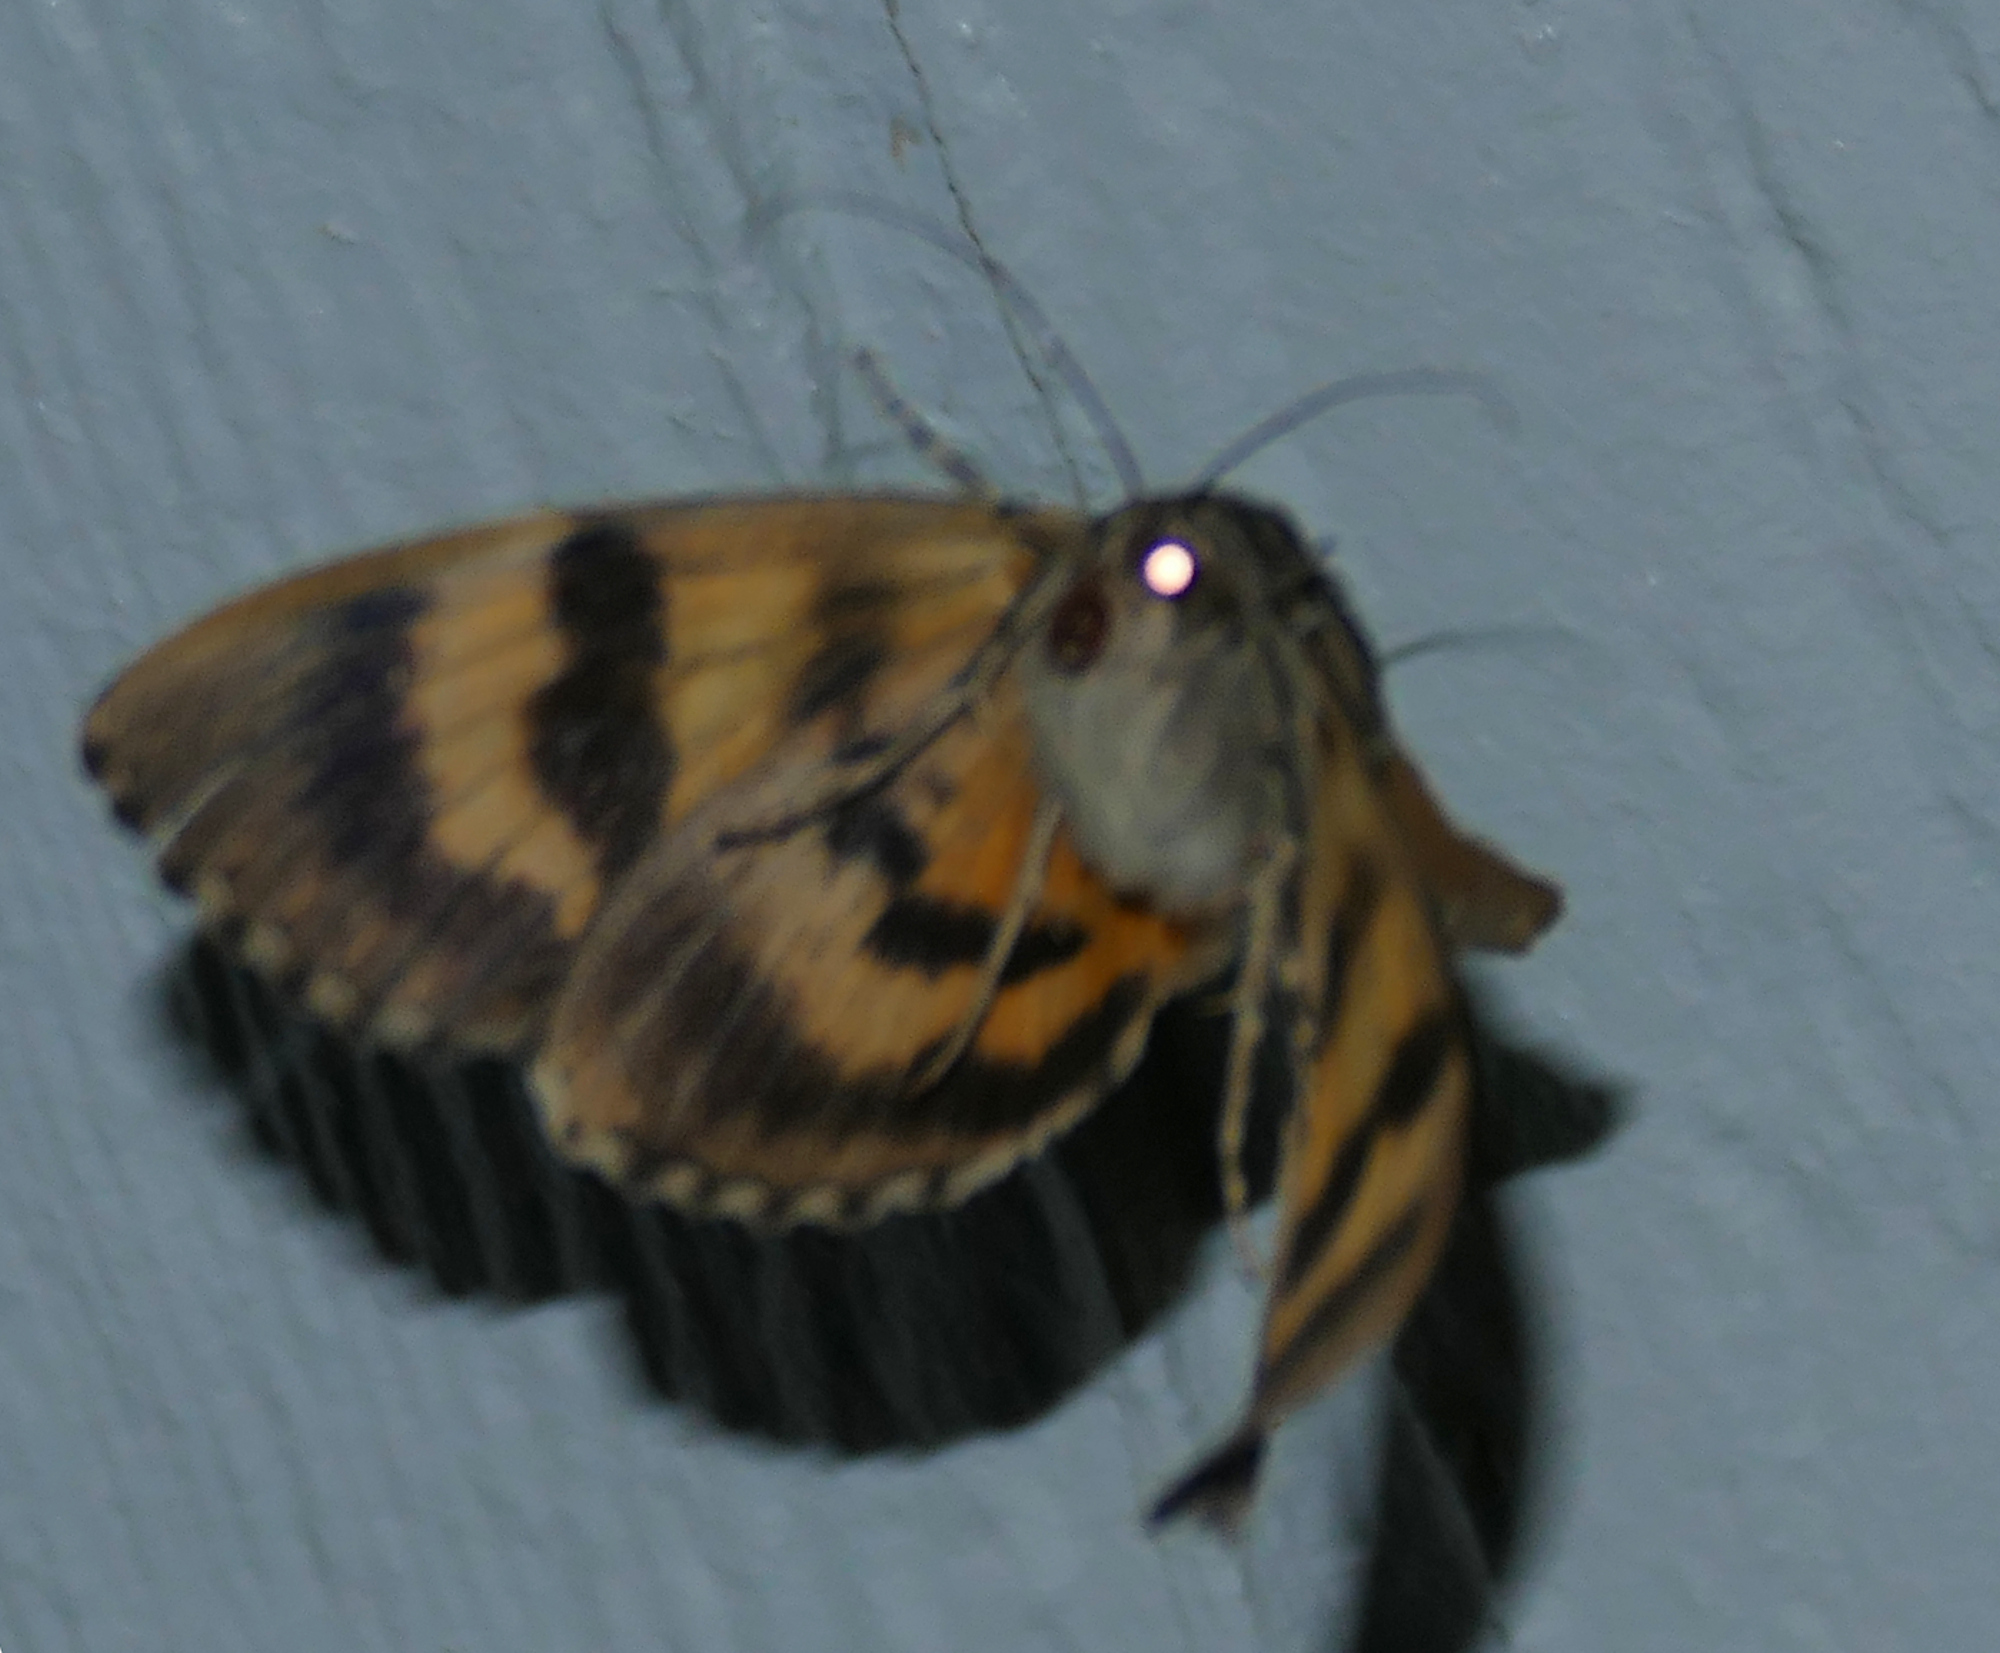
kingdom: Animalia
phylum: Arthropoda
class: Insecta
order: Lepidoptera
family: Erebidae
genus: Catocala
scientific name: Catocala piatrix
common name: The penitent underwing
